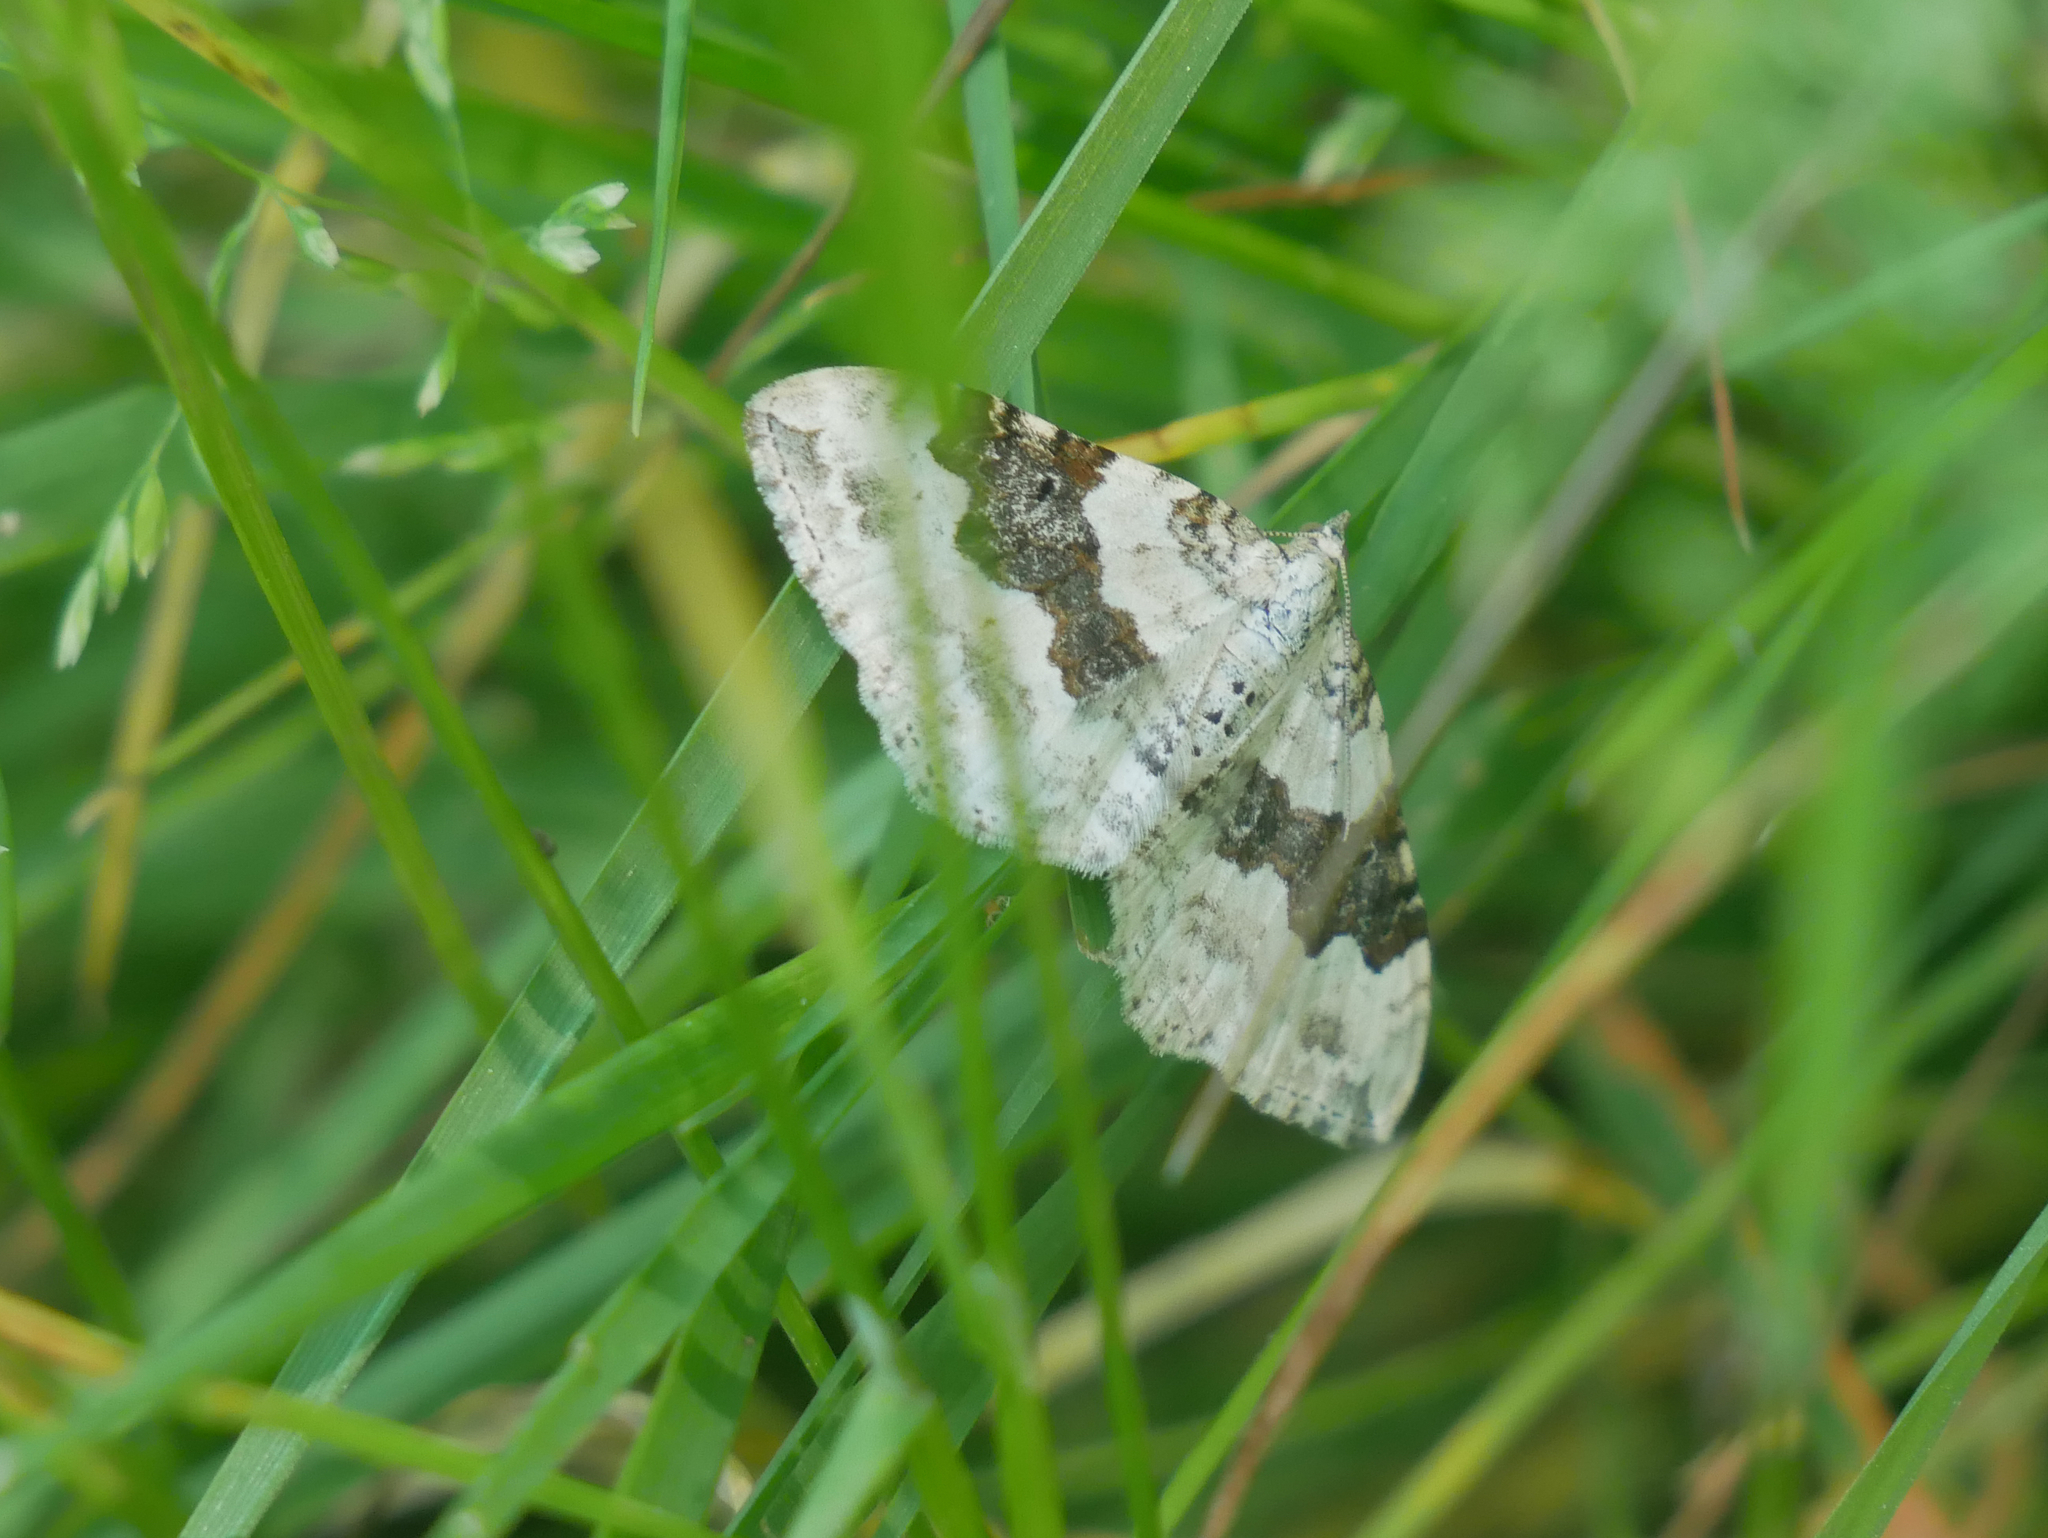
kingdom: Animalia
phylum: Arthropoda
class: Insecta
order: Lepidoptera
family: Geometridae
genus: Xanthorhoe
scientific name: Xanthorhoe montanata
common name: Silver-ground carpet
